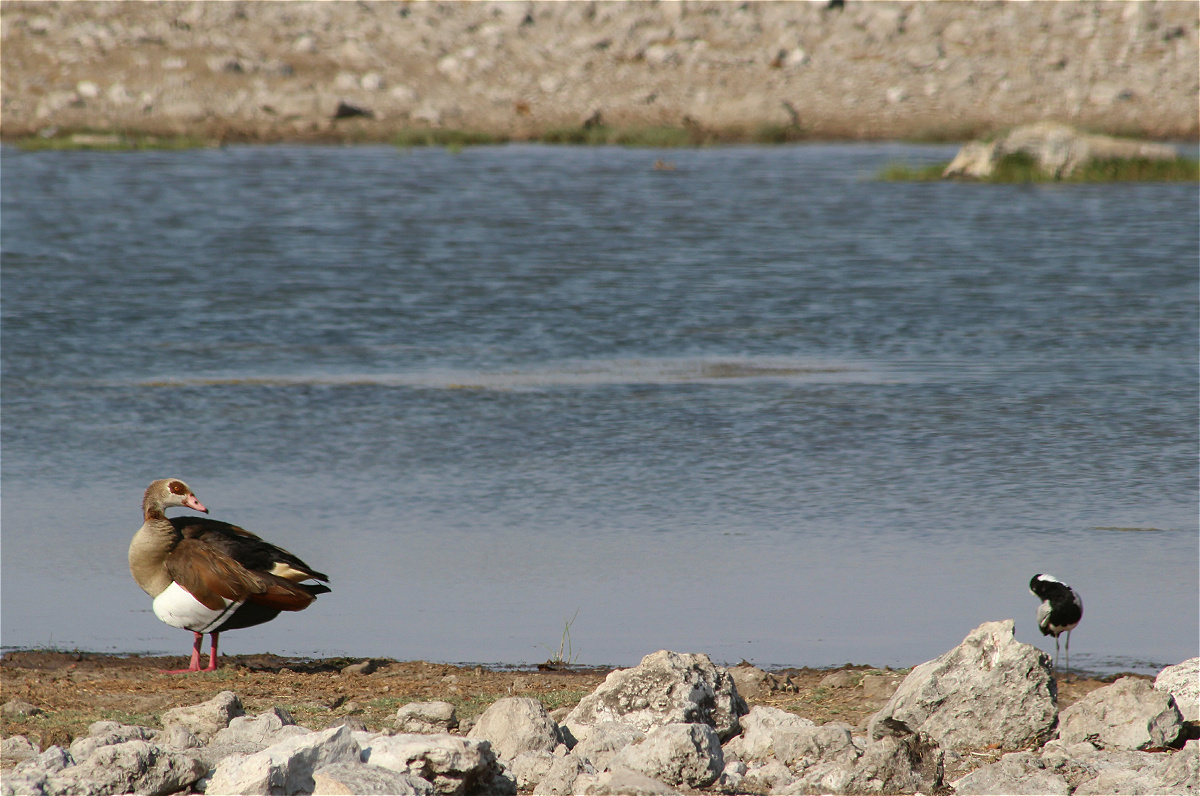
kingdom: Animalia
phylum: Chordata
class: Aves
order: Anseriformes
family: Anatidae
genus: Alopochen
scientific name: Alopochen aegyptiaca
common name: Egyptian goose
